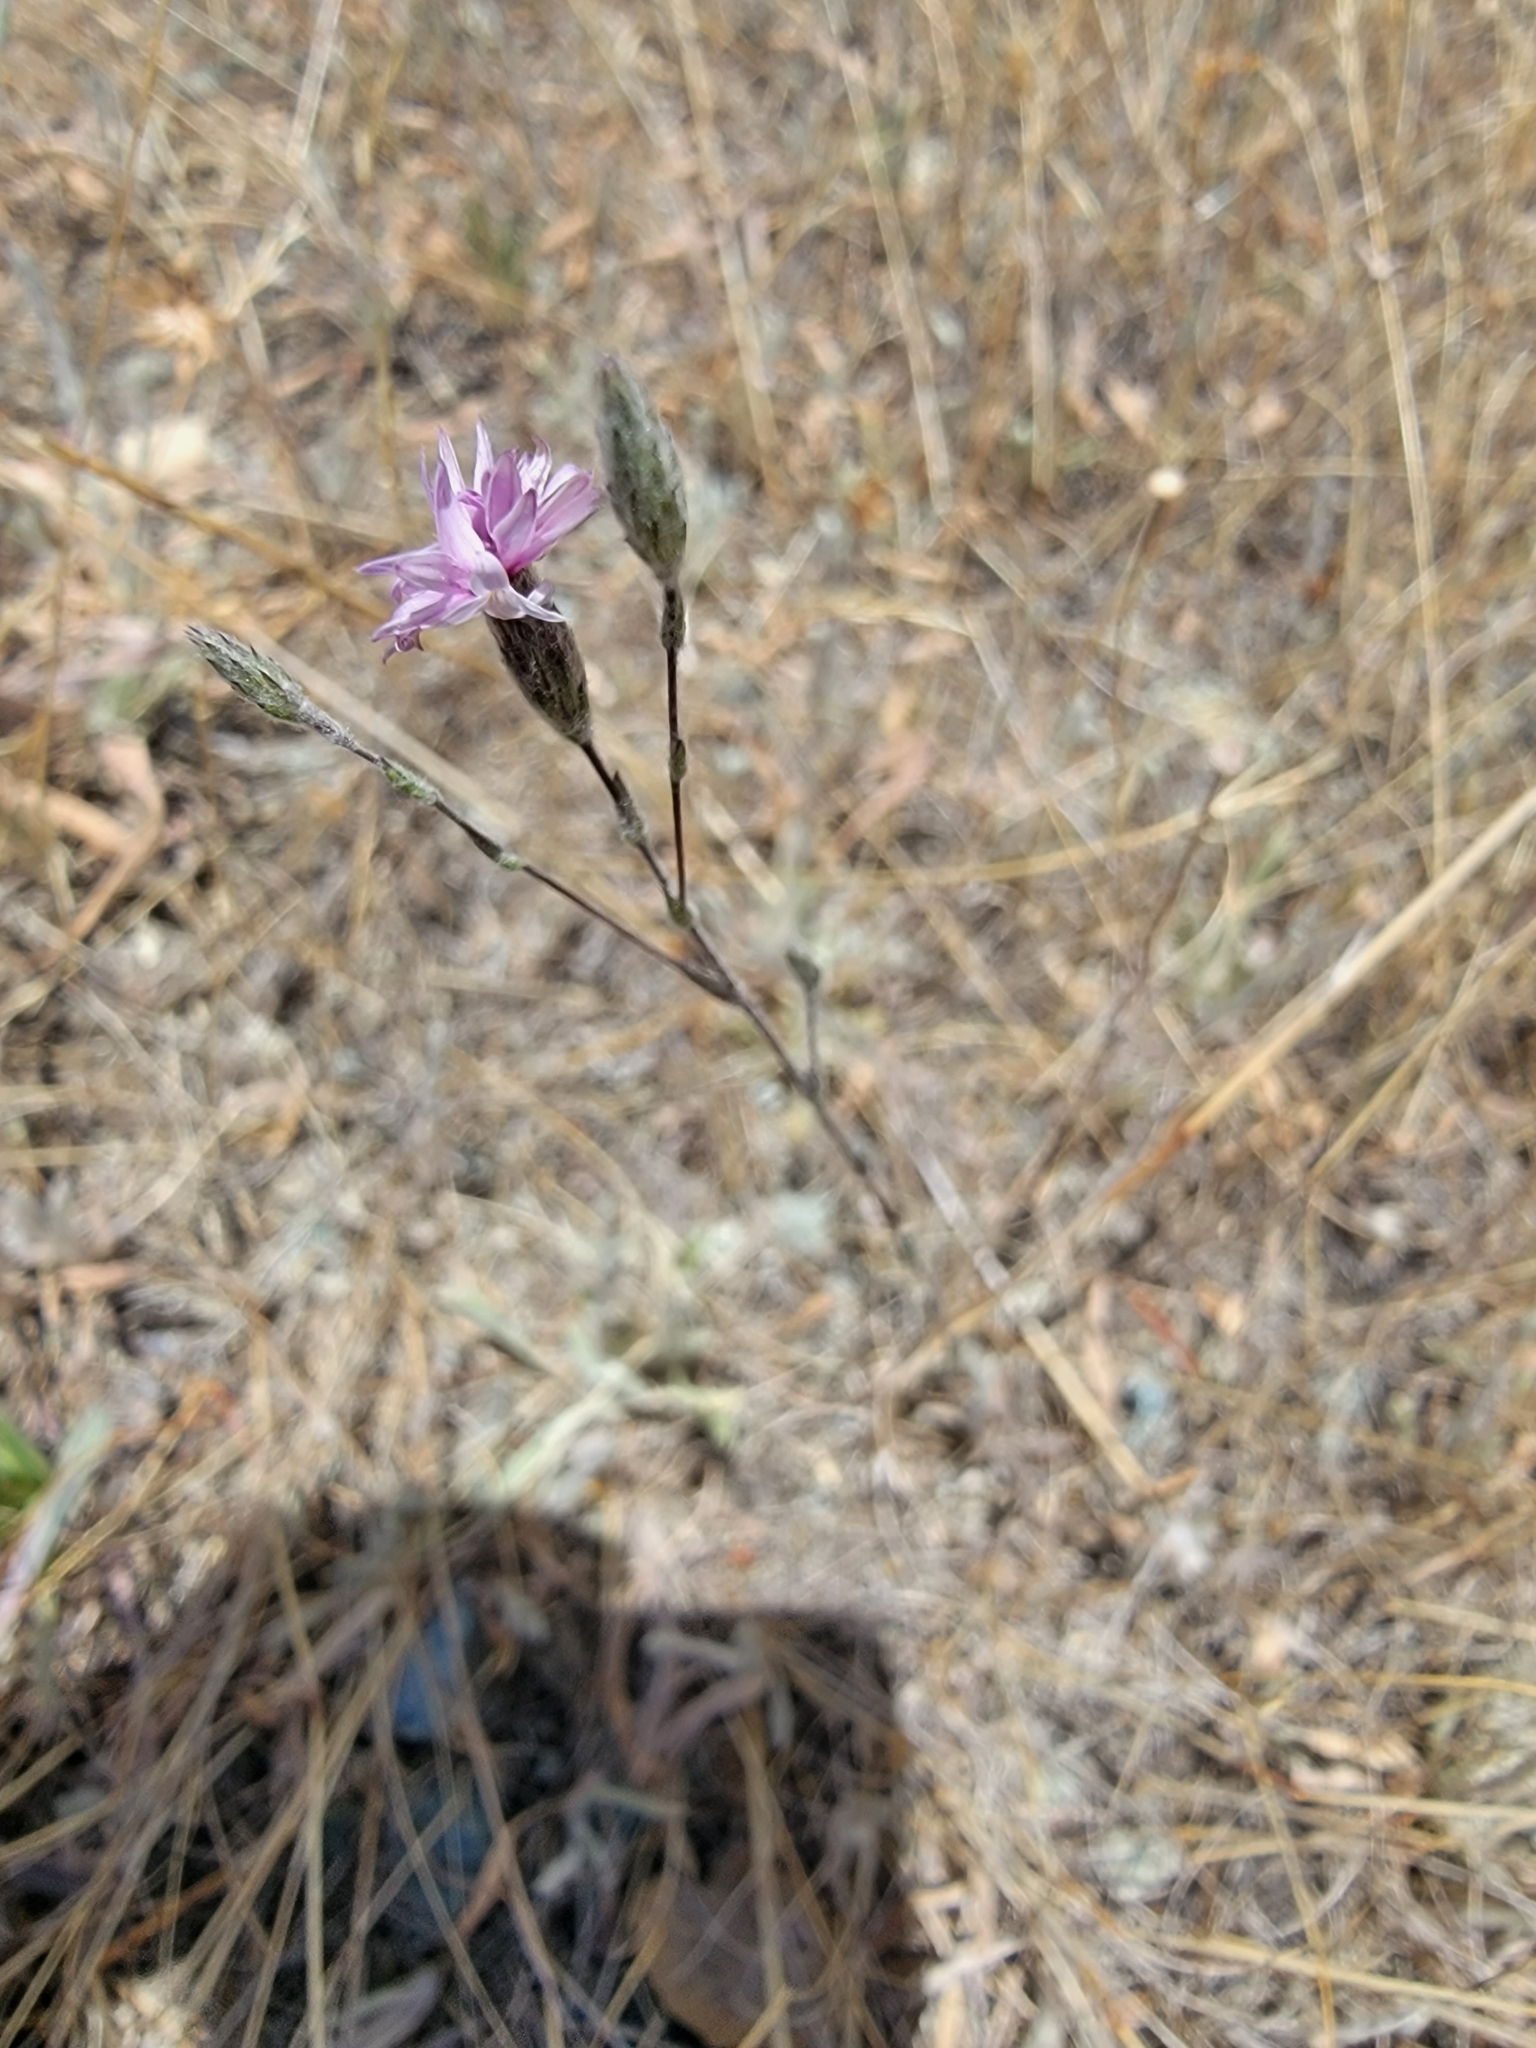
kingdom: Plantae
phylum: Tracheophyta
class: Magnoliopsida
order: Asterales
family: Asteraceae
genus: Lessingia
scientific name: Lessingia hololeuca
